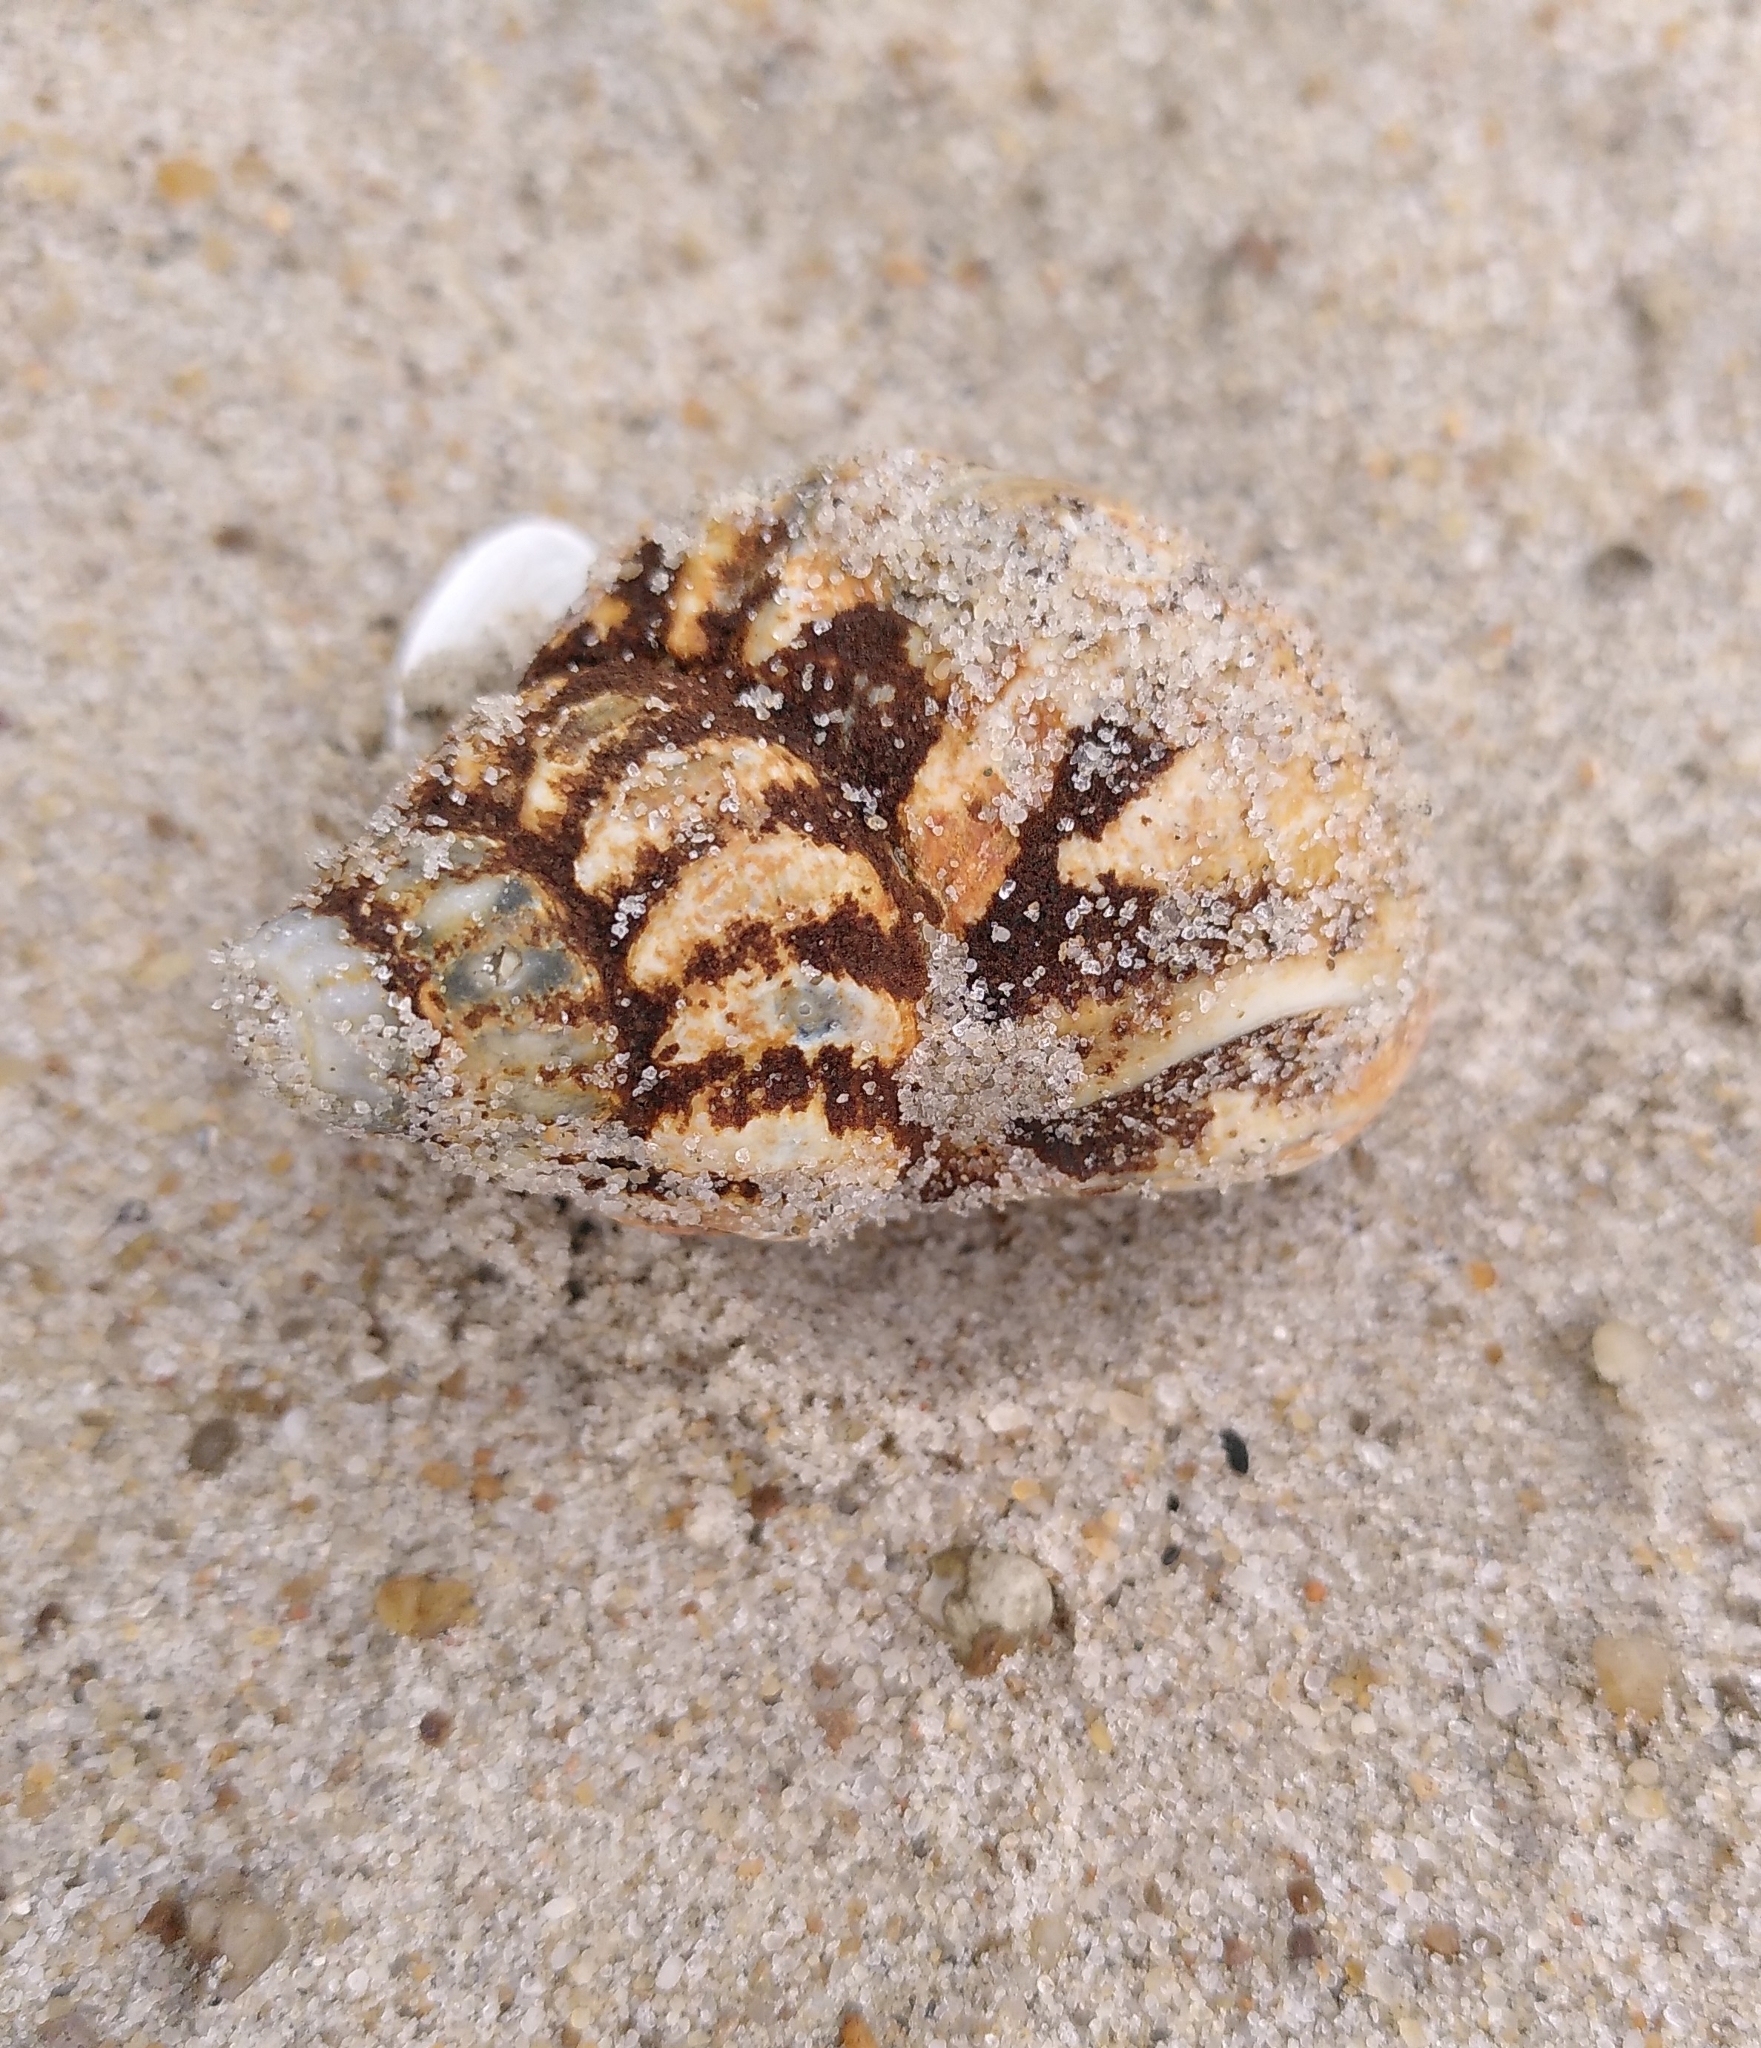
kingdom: Animalia
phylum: Mollusca
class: Gastropoda
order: Neogastropoda
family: Buccinidae
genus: Buccinum
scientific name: Buccinum undatum
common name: Common whelk
